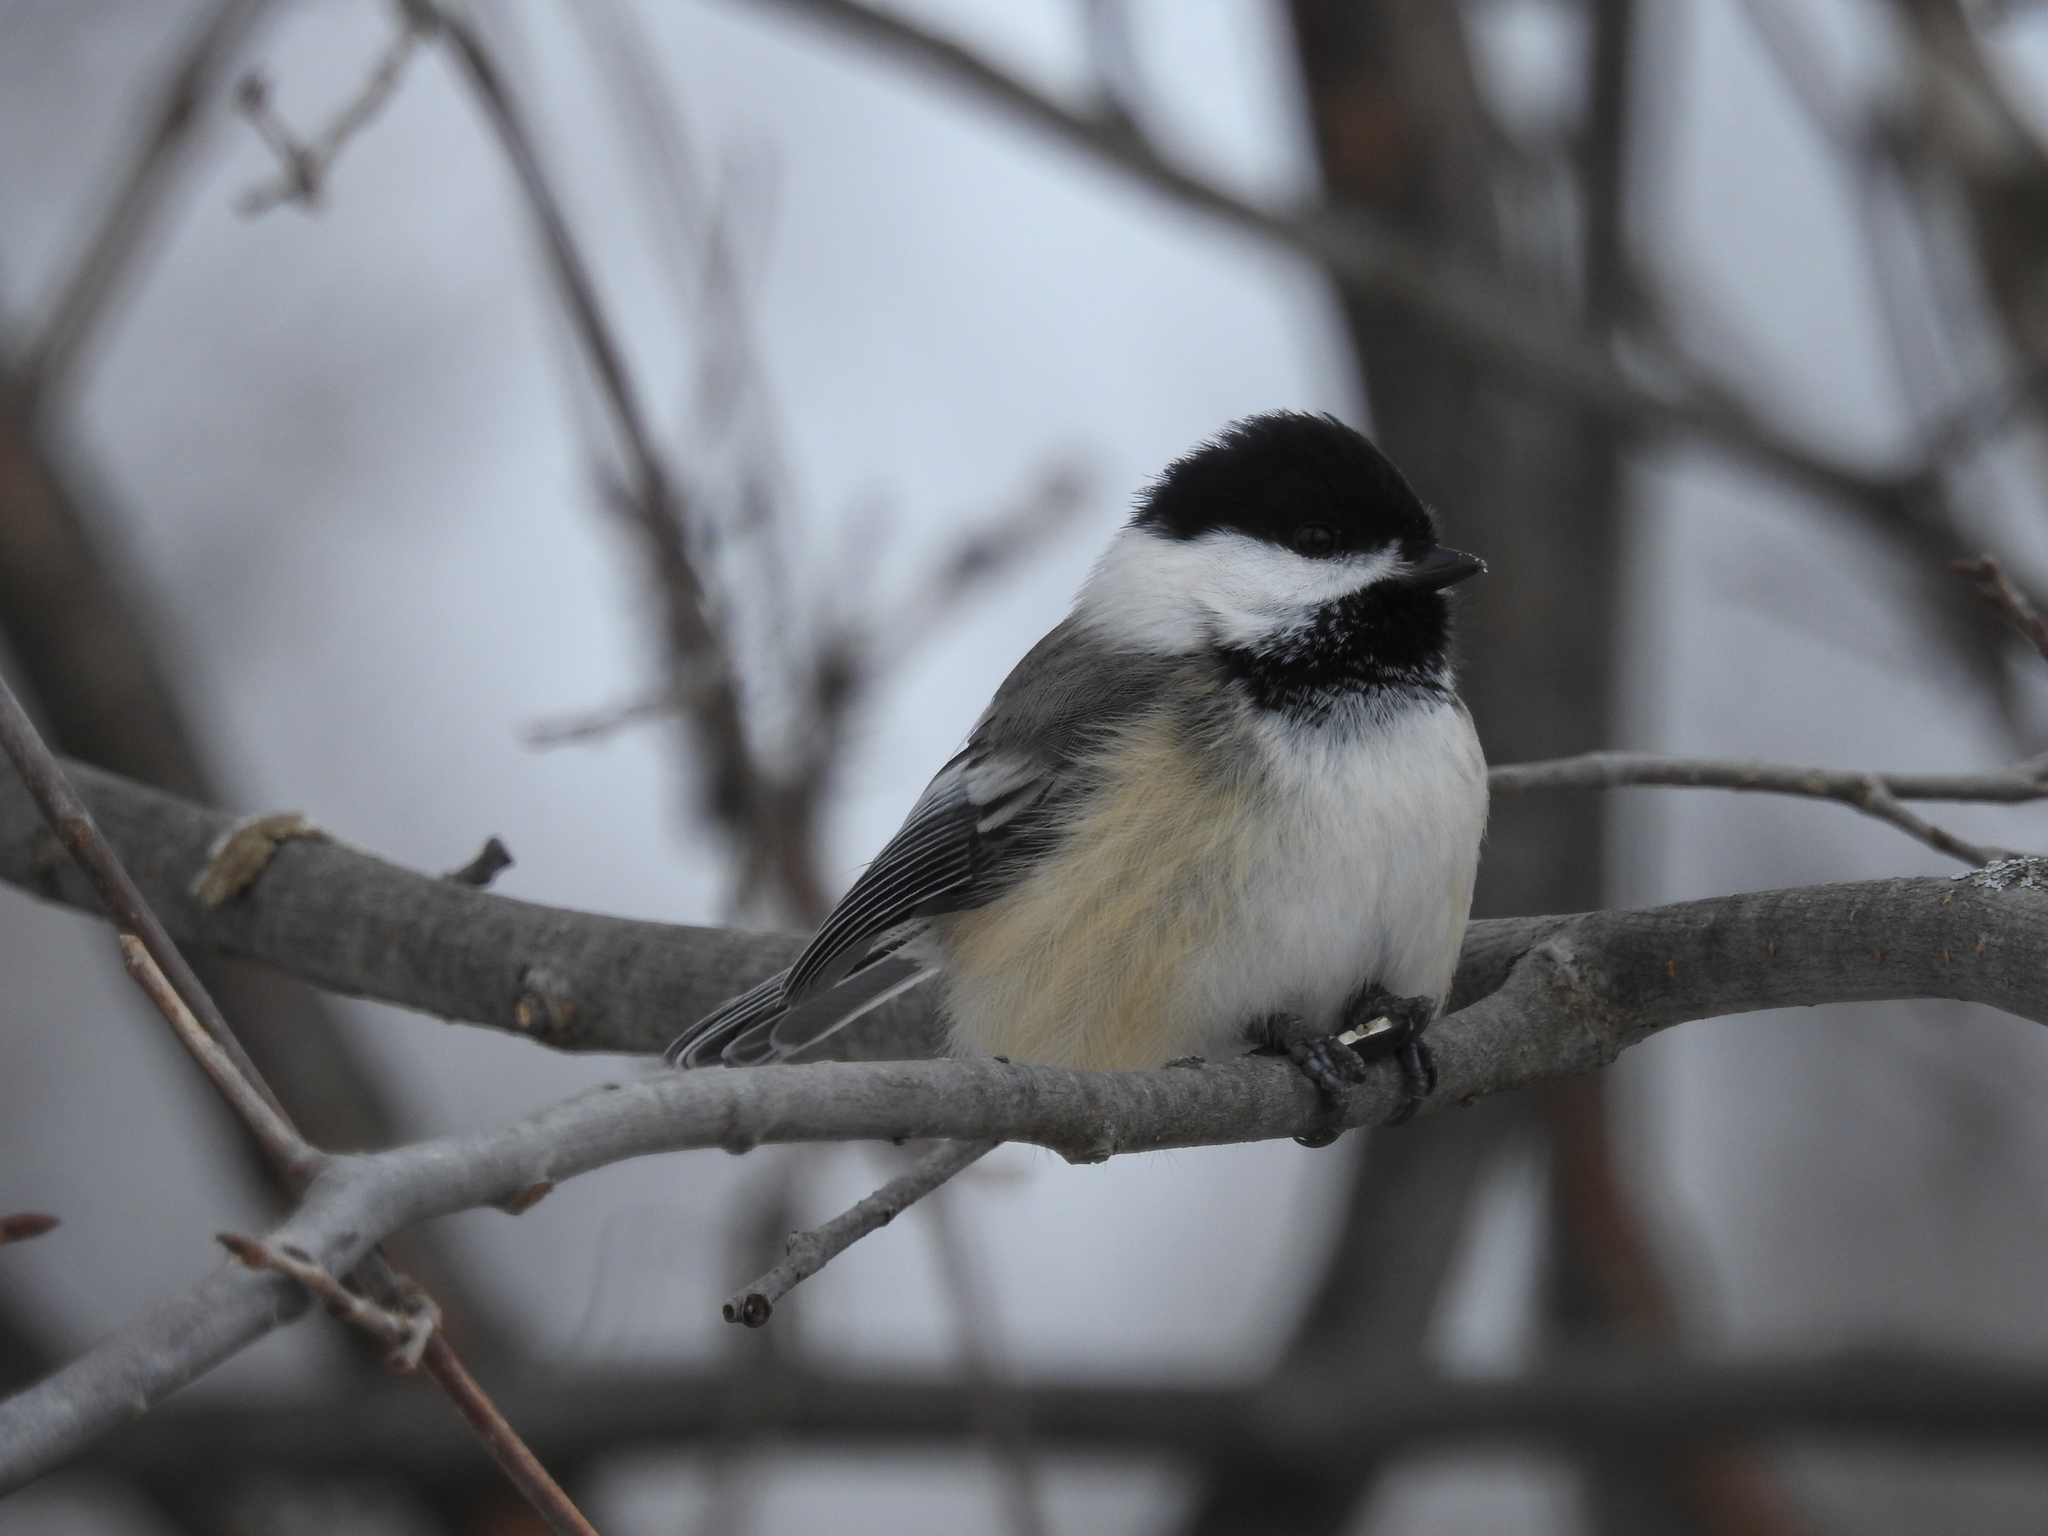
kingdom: Animalia
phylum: Chordata
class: Aves
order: Passeriformes
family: Paridae
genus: Poecile
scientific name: Poecile atricapillus
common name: Black-capped chickadee
